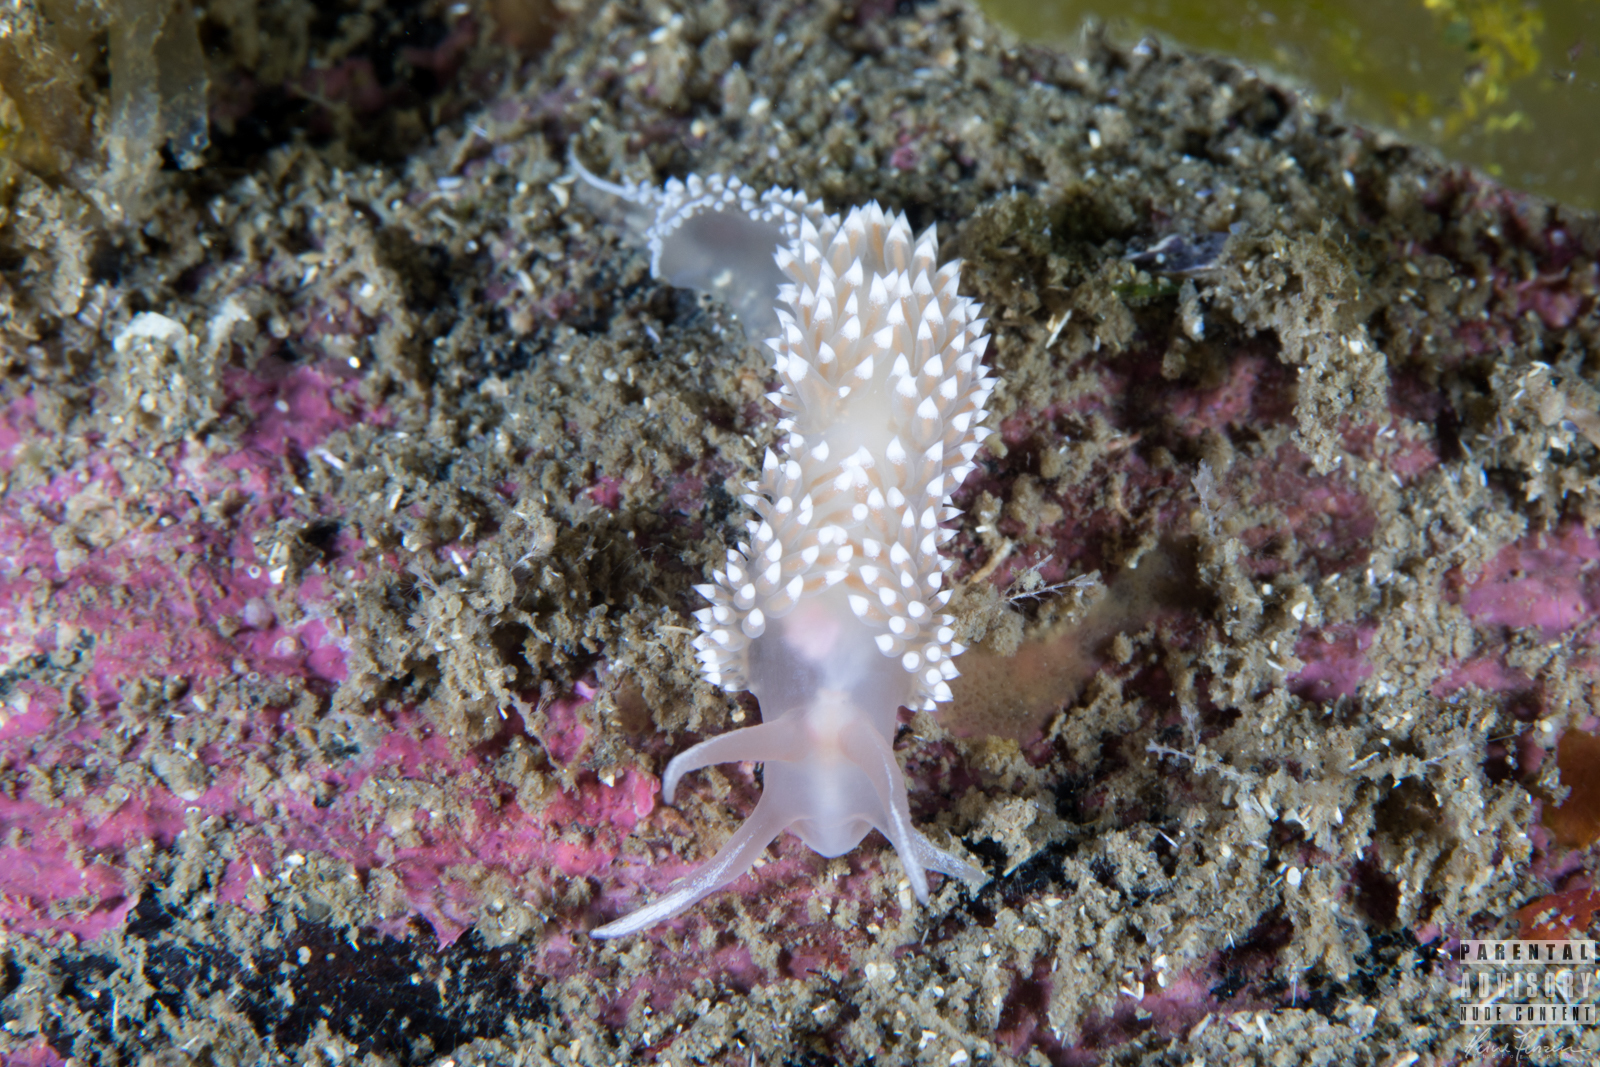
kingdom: Animalia
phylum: Mollusca
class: Gastropoda
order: Nudibranchia
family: Coryphellidae
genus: Coryphella
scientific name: Coryphella verrucosa
